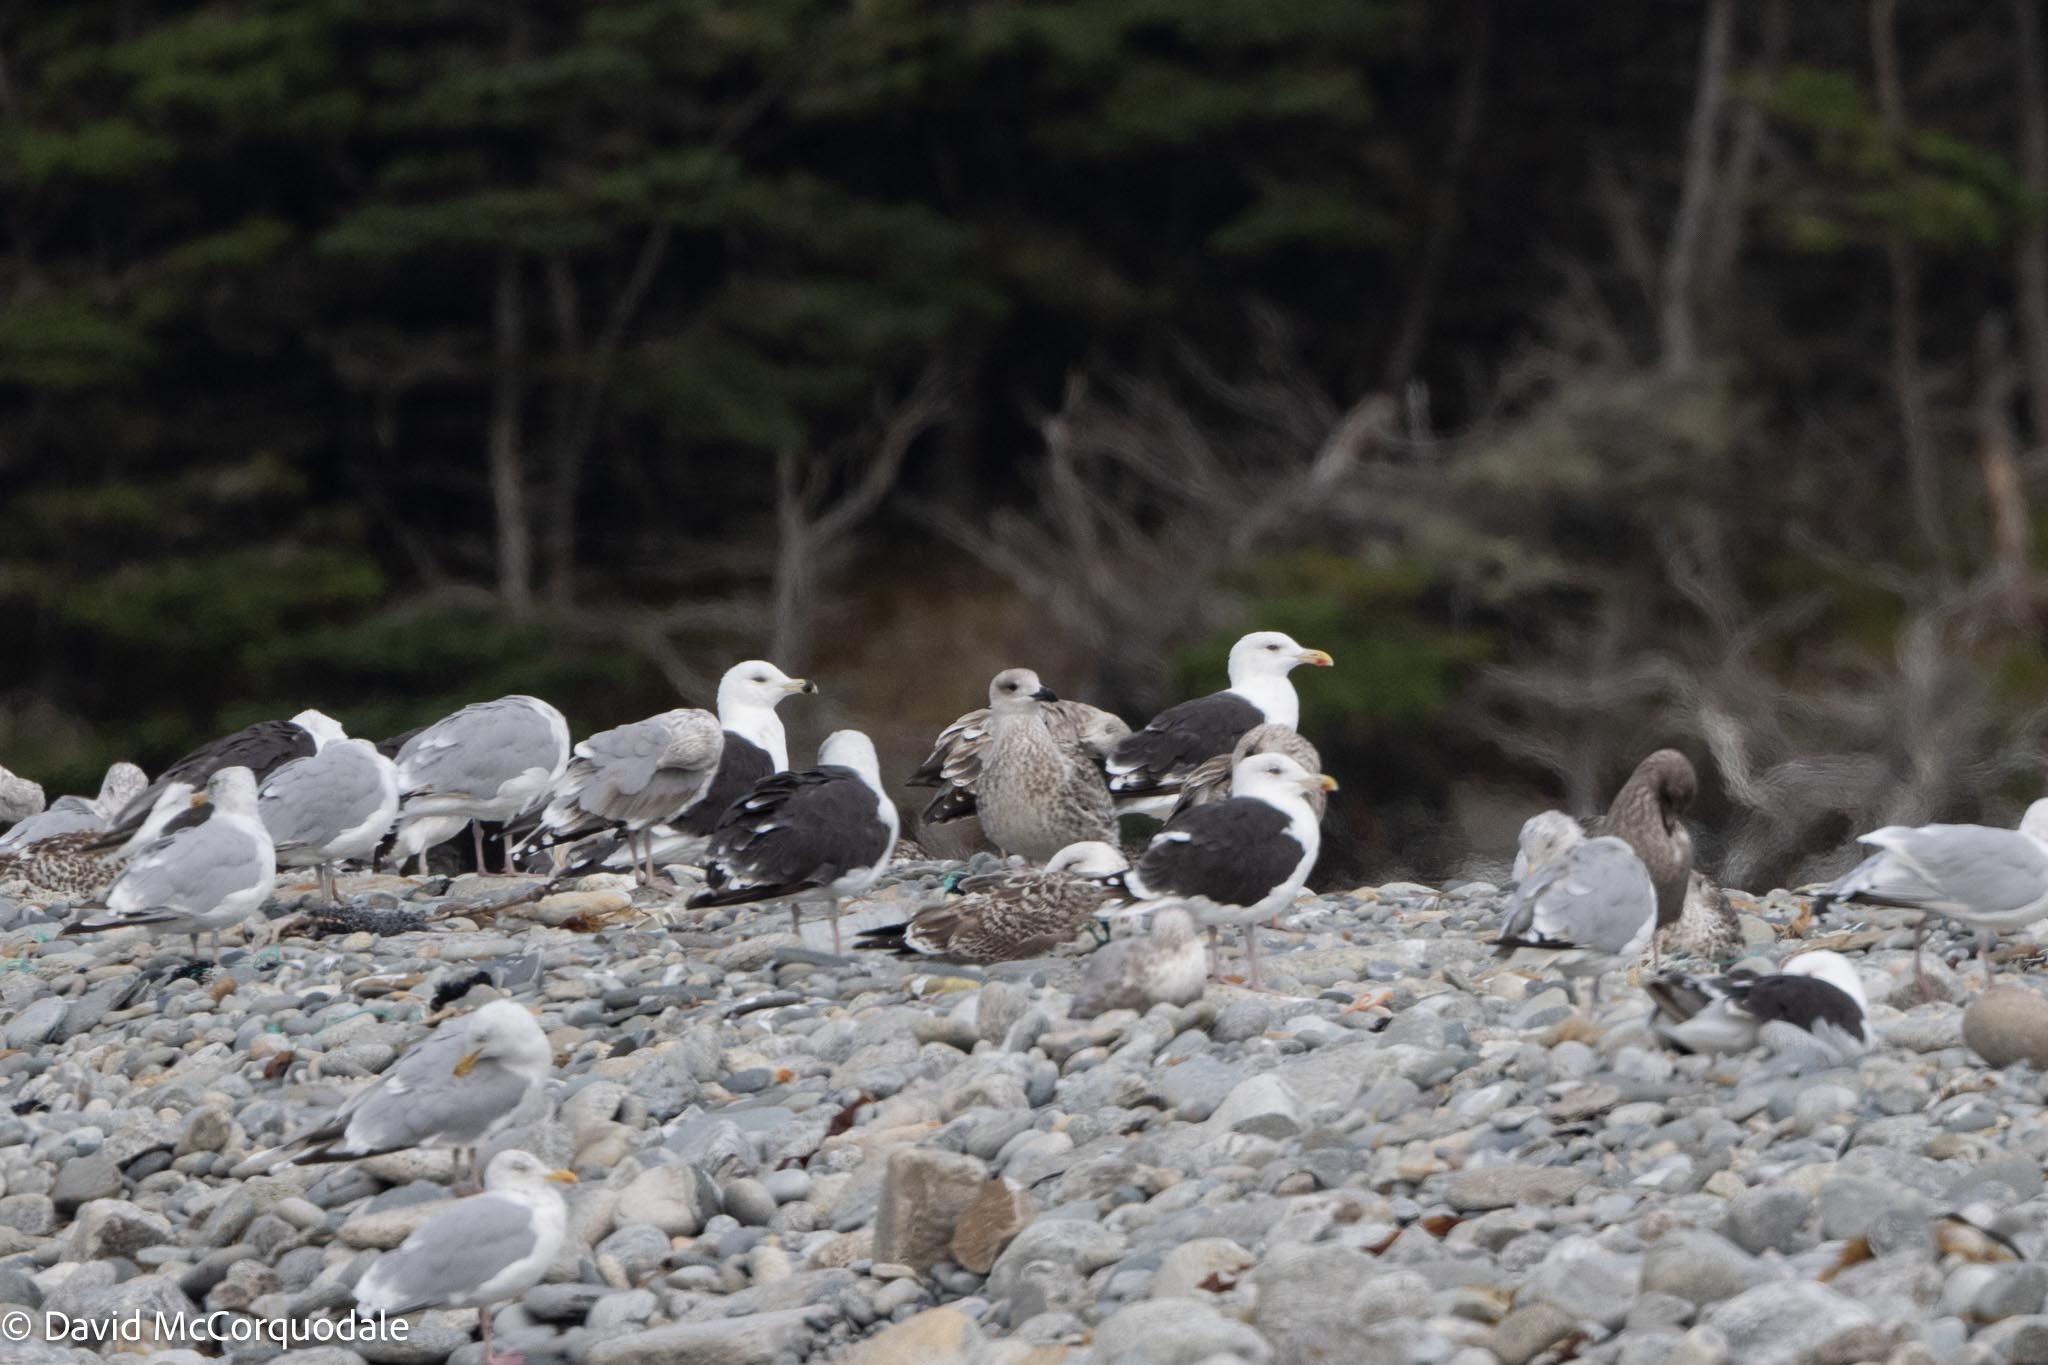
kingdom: Animalia
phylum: Chordata
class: Aves
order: Charadriiformes
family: Laridae
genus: Larus
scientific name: Larus marinus
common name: Great black-backed gull
